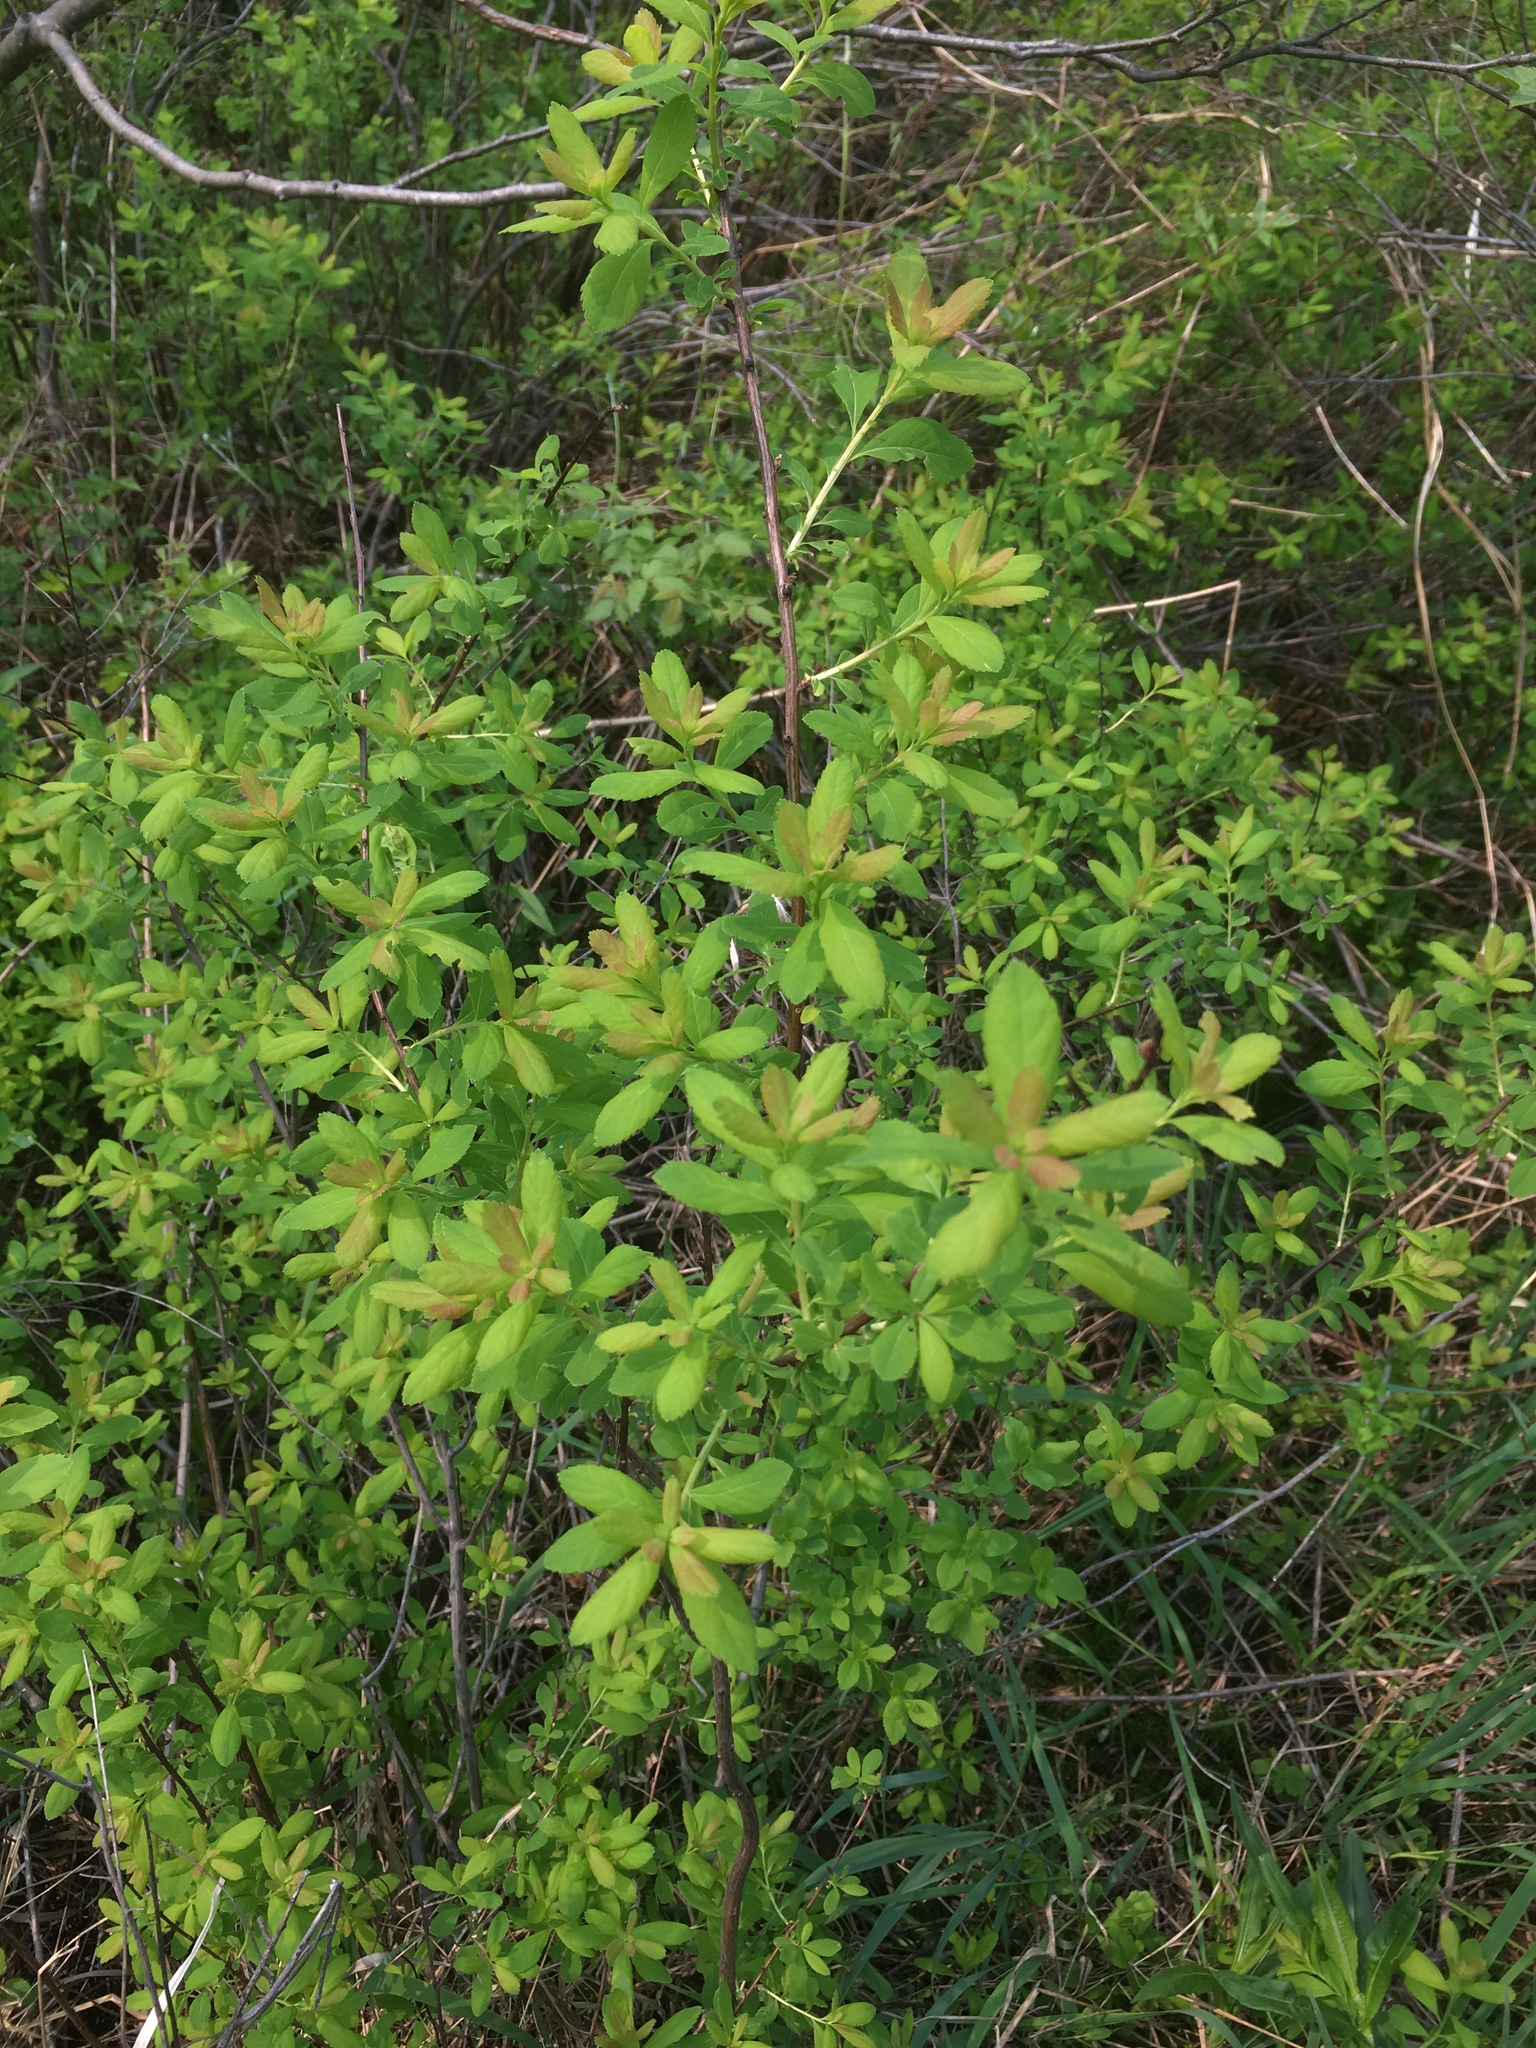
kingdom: Plantae
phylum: Tracheophyta
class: Magnoliopsida
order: Rosales
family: Rosaceae
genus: Spiraea
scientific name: Spiraea alba
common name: Pale bridewort
